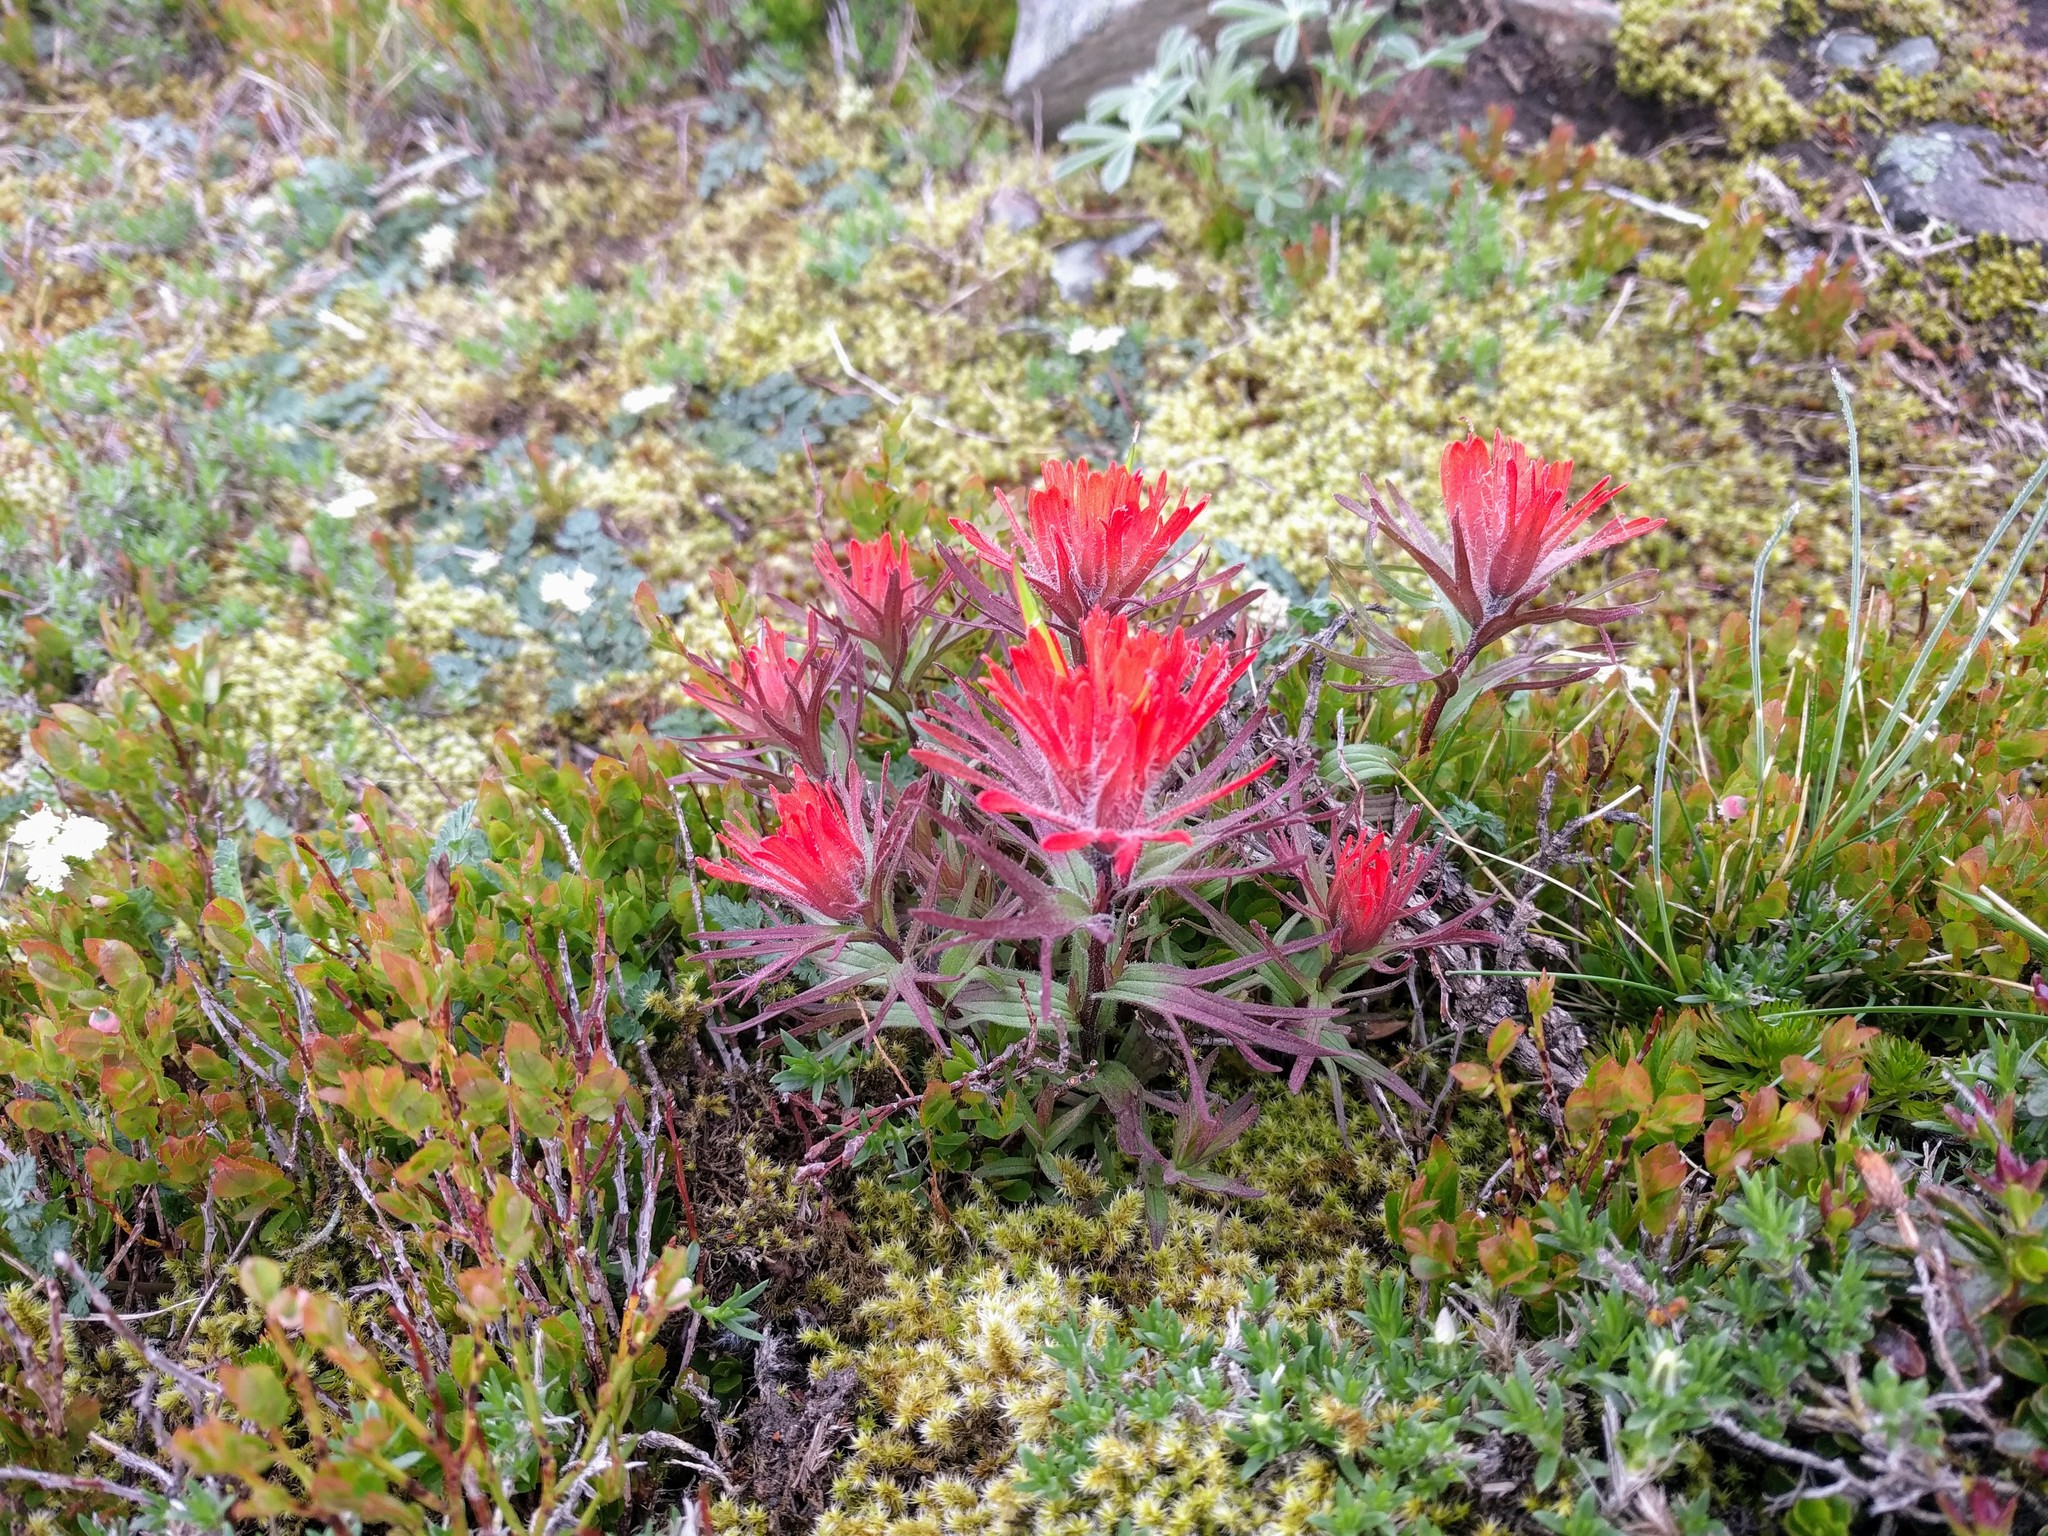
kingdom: Plantae
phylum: Tracheophyta
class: Magnoliopsida
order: Lamiales
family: Orobanchaceae
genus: Castilleja
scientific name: Castilleja rupicola
